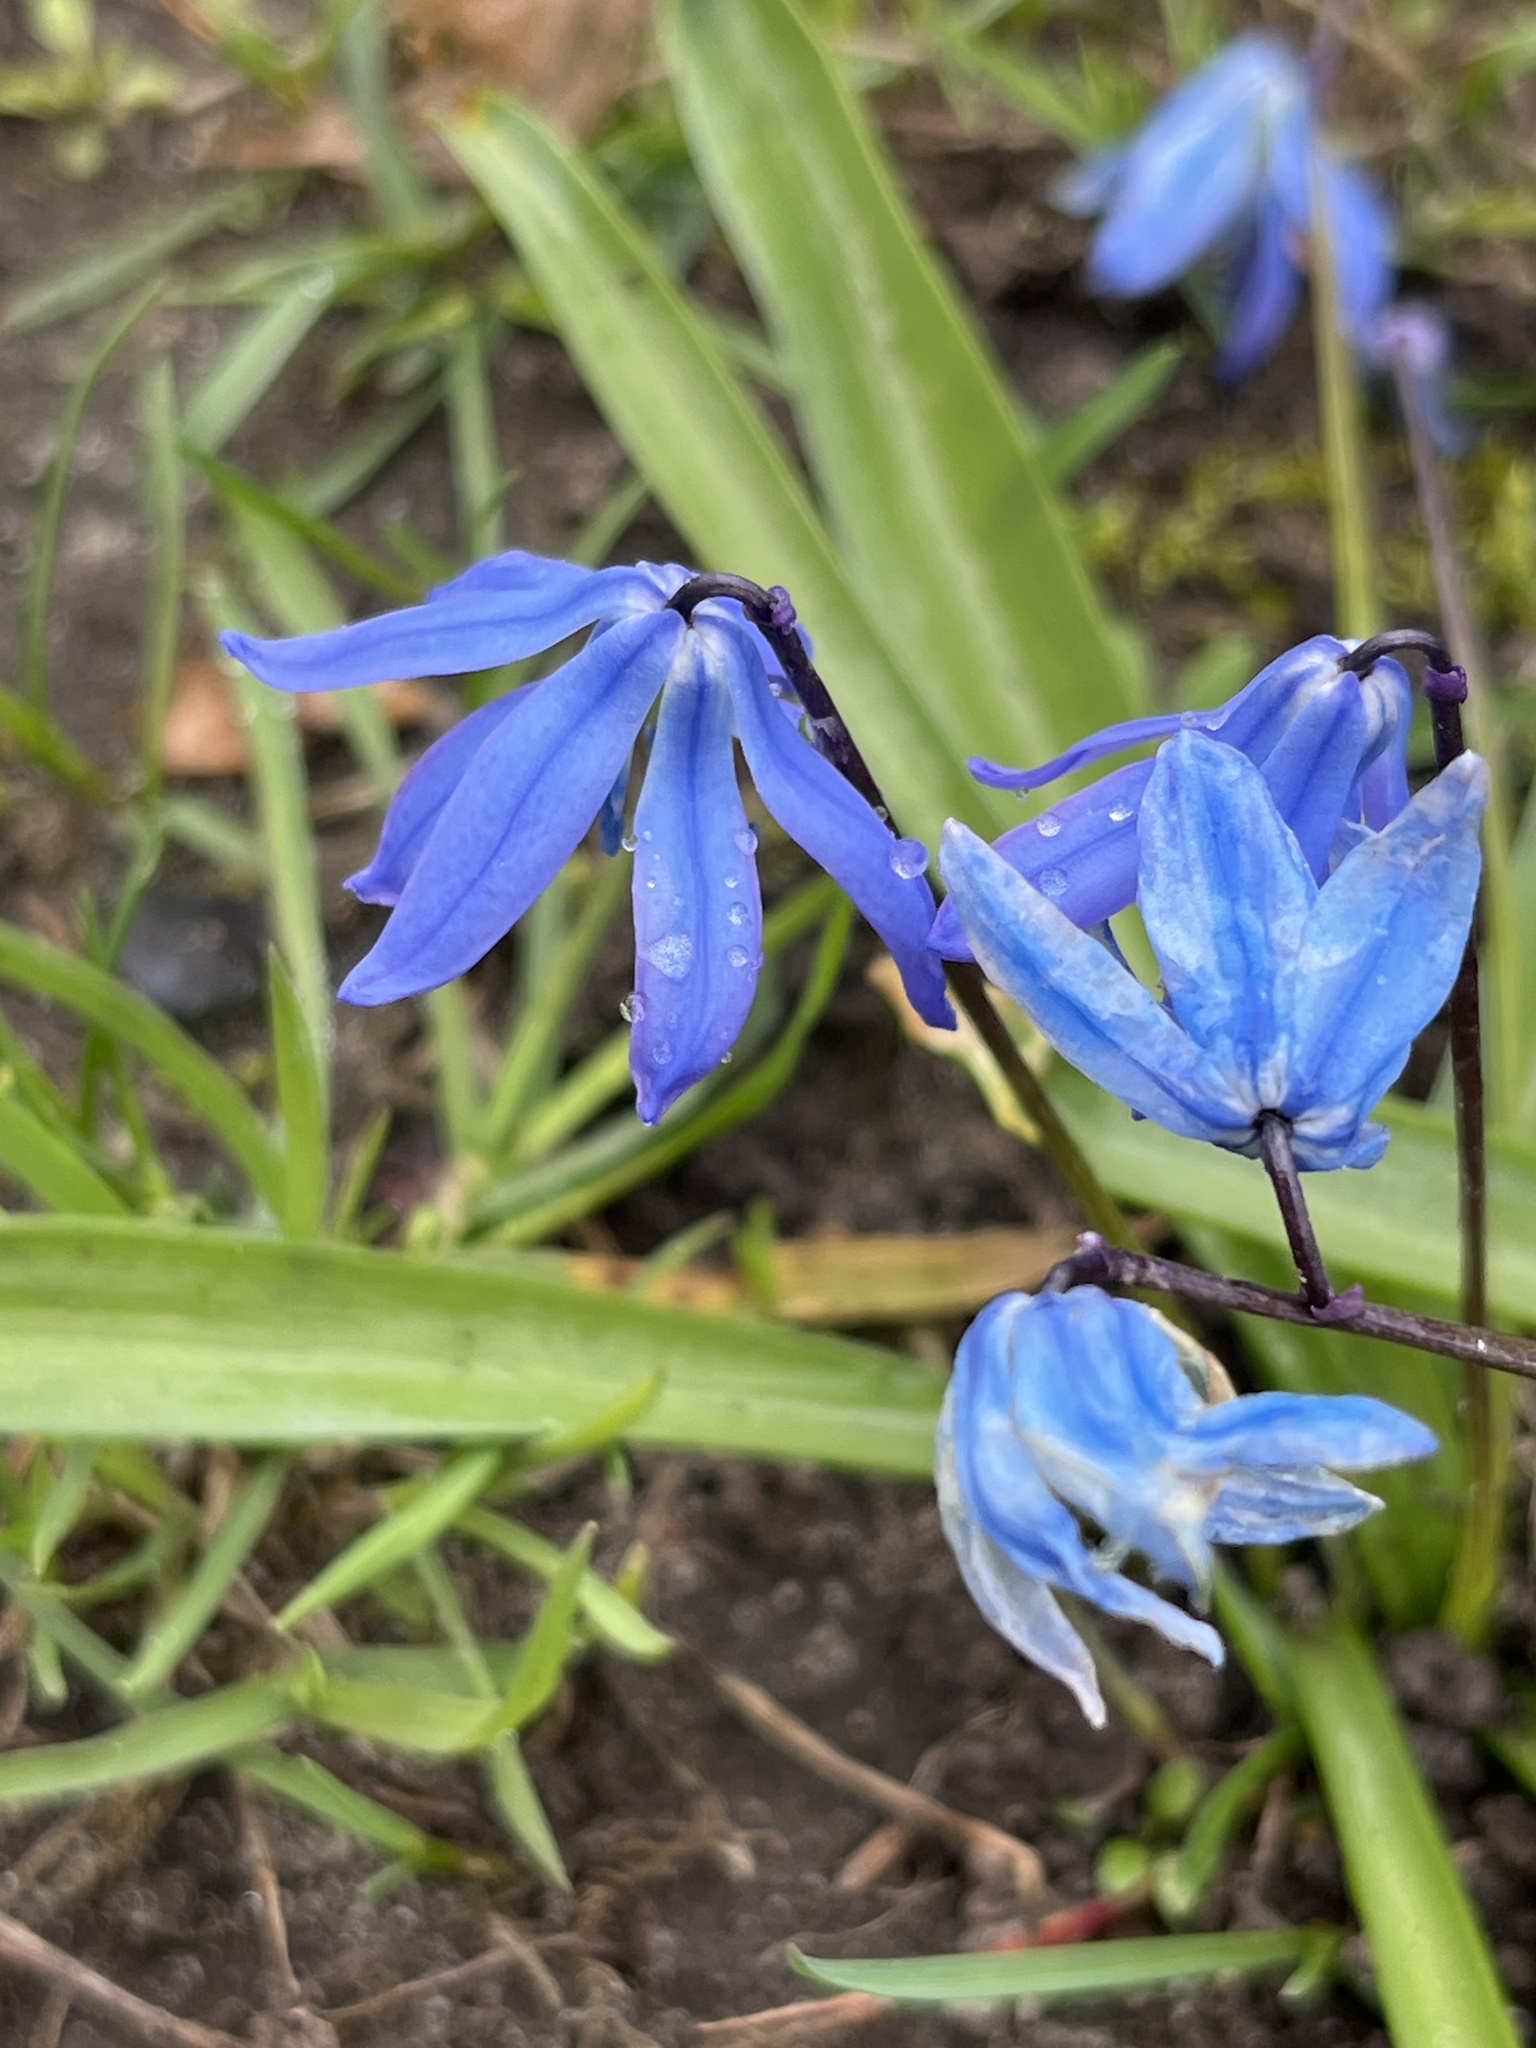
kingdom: Plantae
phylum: Tracheophyta
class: Liliopsida
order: Asparagales
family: Asparagaceae
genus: Scilla
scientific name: Scilla siberica
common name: Siberian squill
